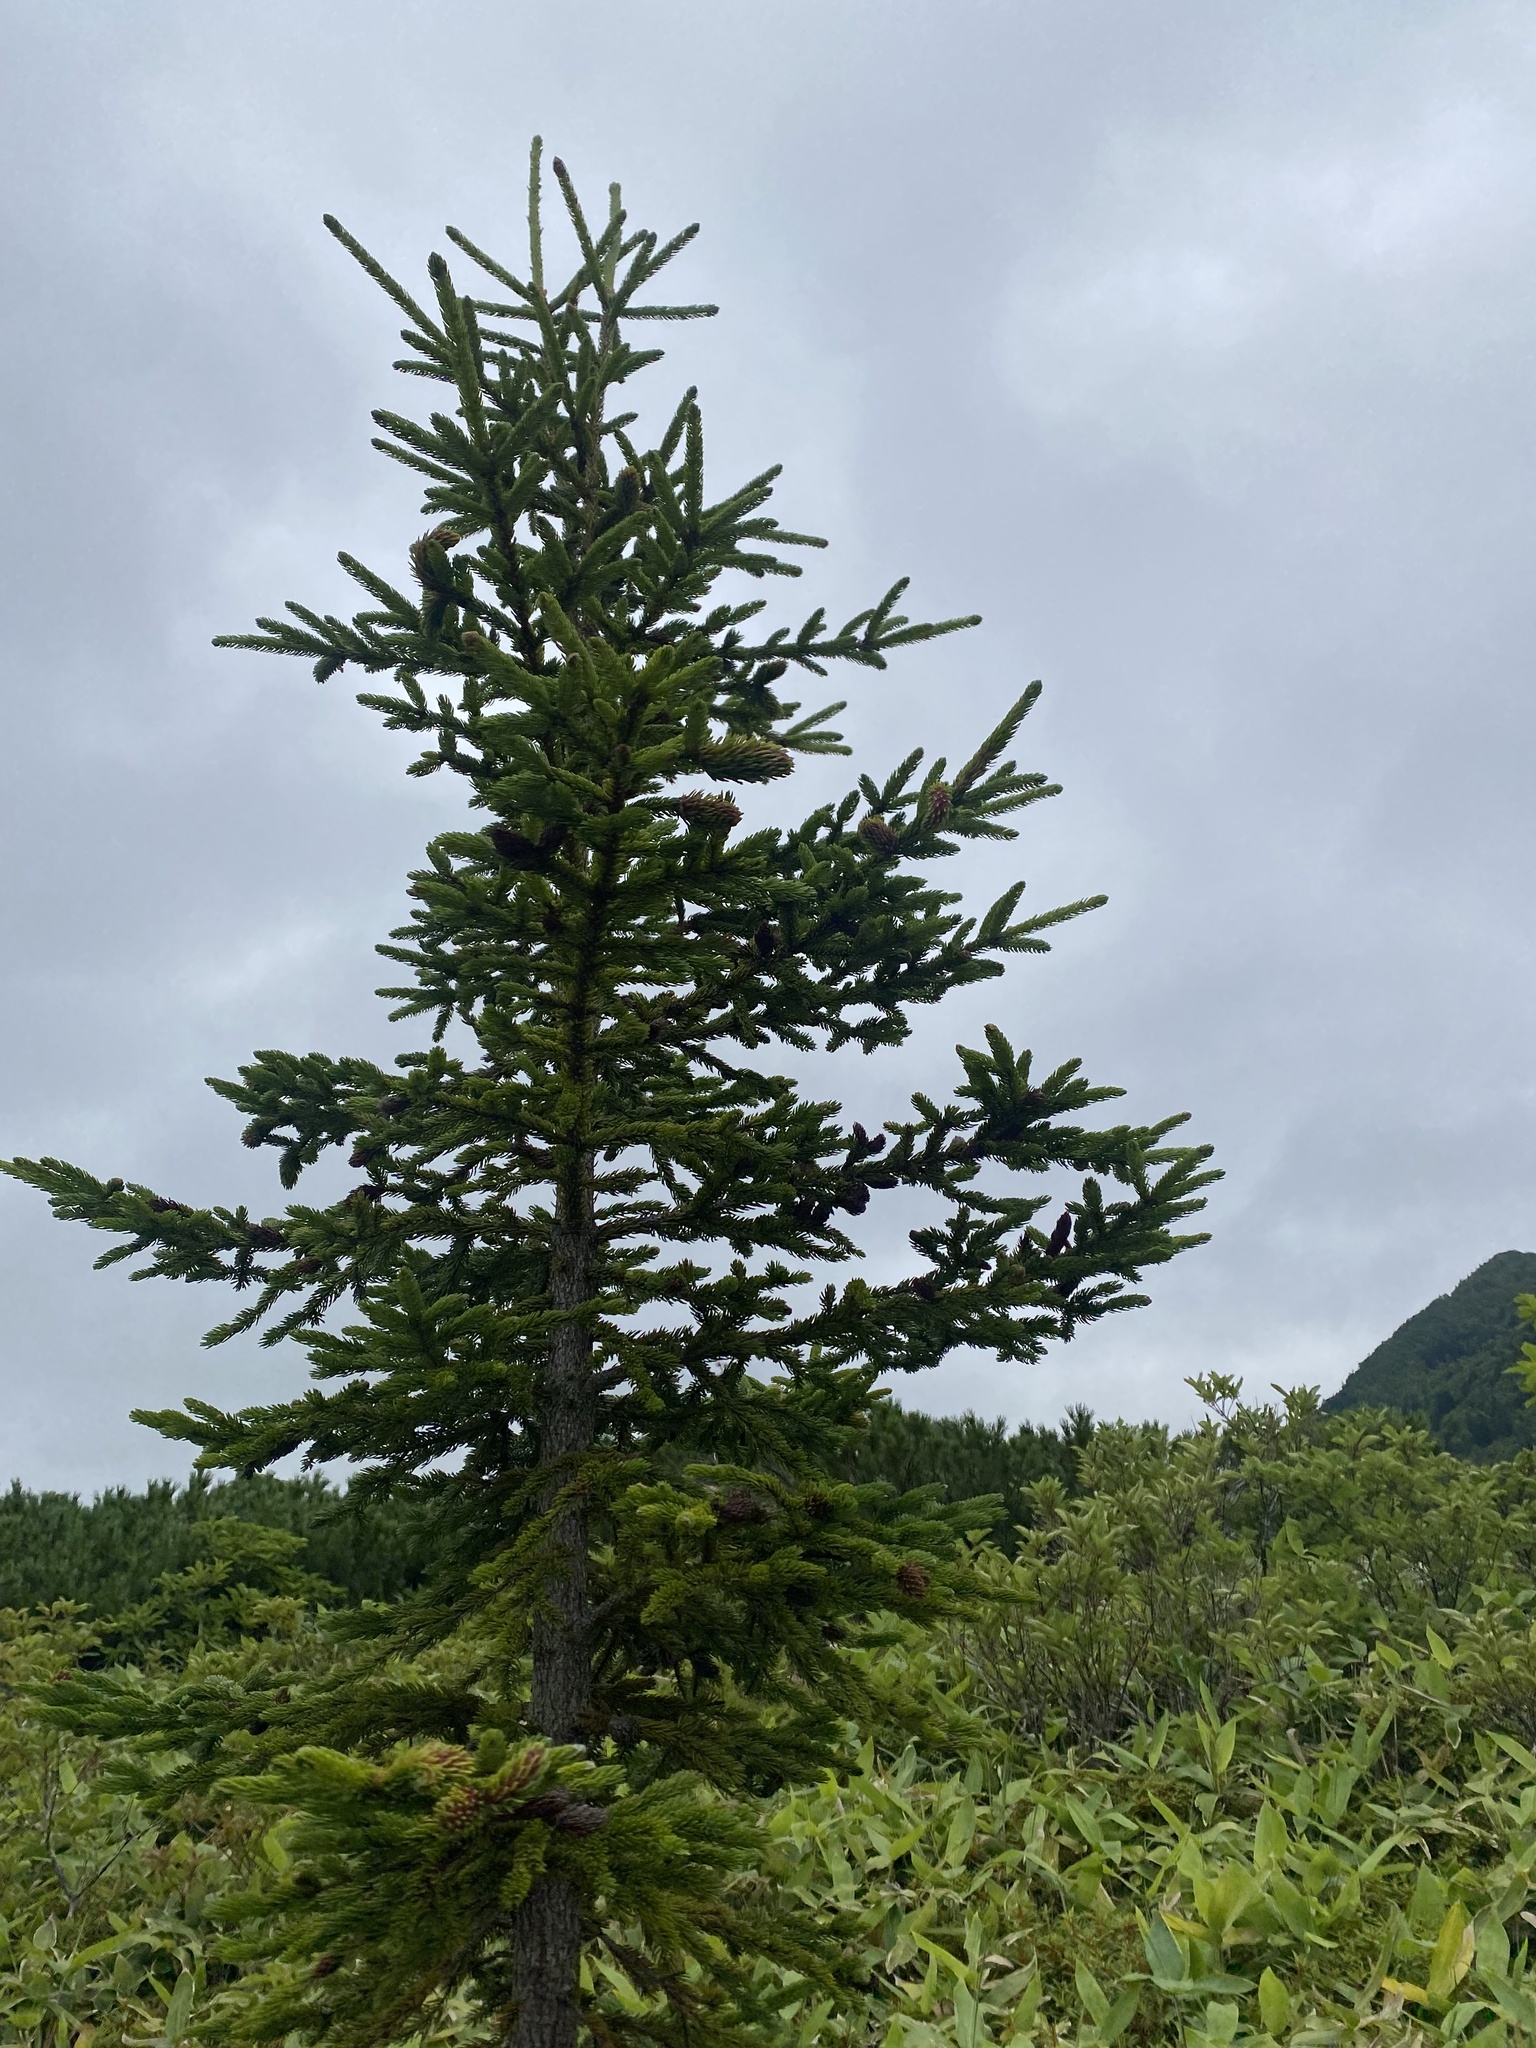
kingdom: Plantae
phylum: Tracheophyta
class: Pinopsida
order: Pinales
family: Pinaceae
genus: Picea
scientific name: Picea jezoensis
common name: Yeddo spruce
